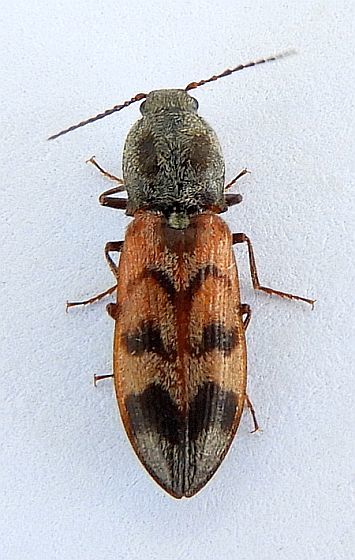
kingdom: Animalia
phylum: Arthropoda
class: Insecta
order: Coleoptera
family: Elateridae
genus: Pseudanostirus
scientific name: Pseudanostirus nebraskensis
